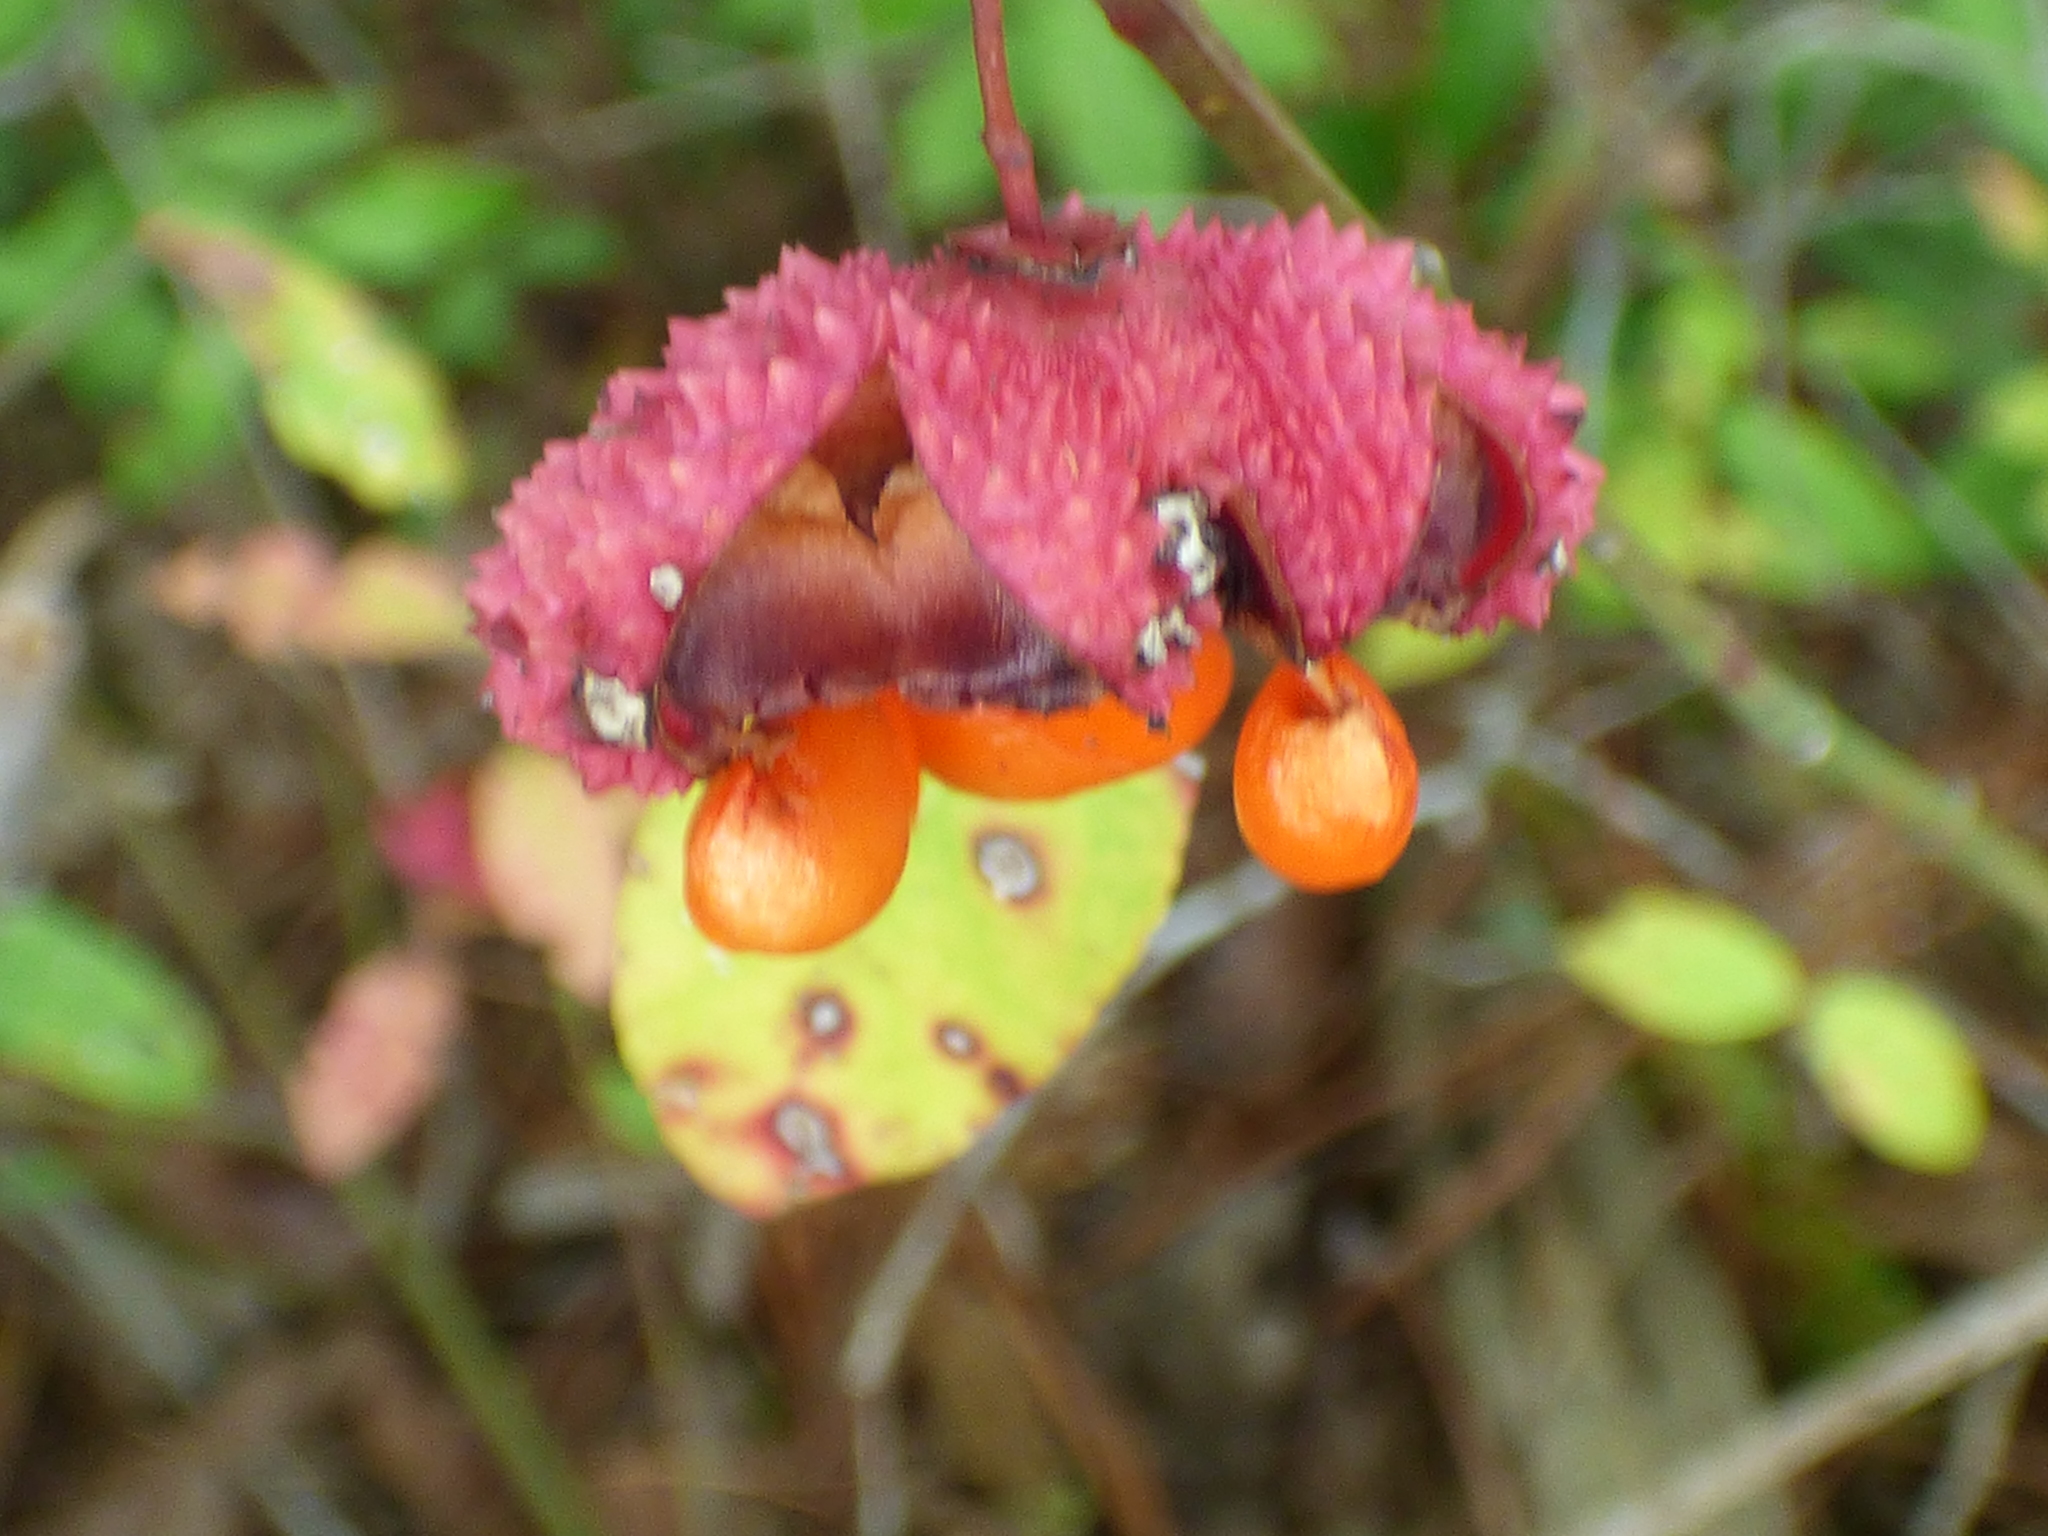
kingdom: Plantae
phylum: Tracheophyta
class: Magnoliopsida
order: Celastrales
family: Celastraceae
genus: Euonymus
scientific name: Euonymus americanus
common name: Bursting-heart
